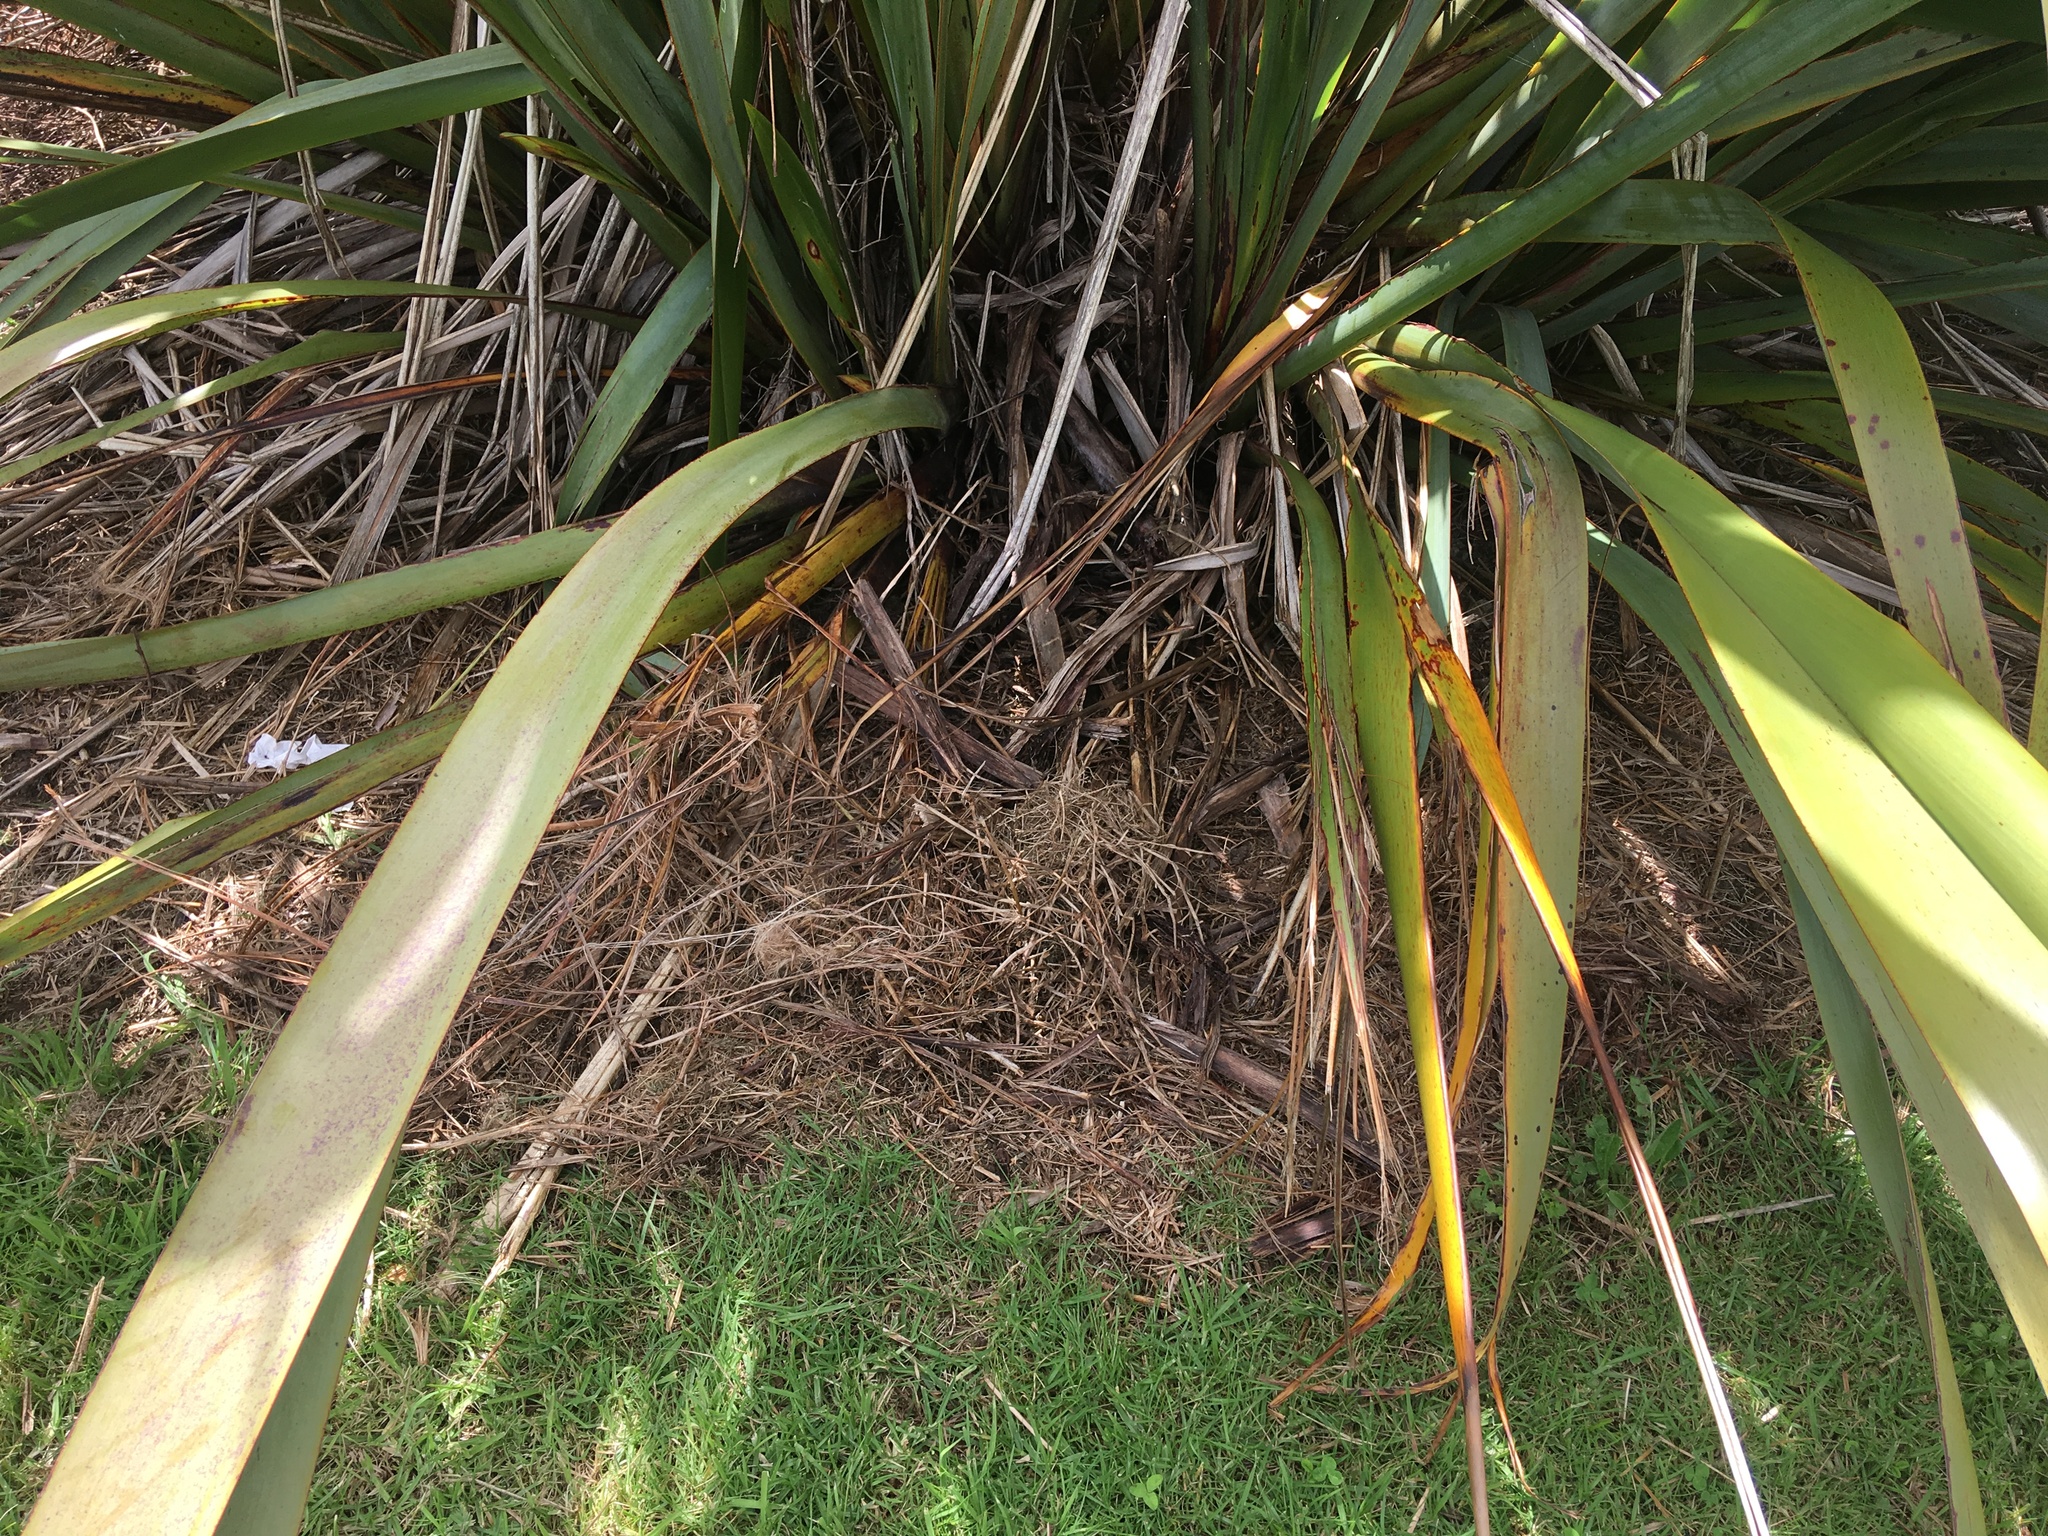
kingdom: Plantae
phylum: Tracheophyta
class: Liliopsida
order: Poales
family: Poaceae
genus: Cenchrus
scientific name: Cenchrus clandestinus
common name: Kikuyugrass
